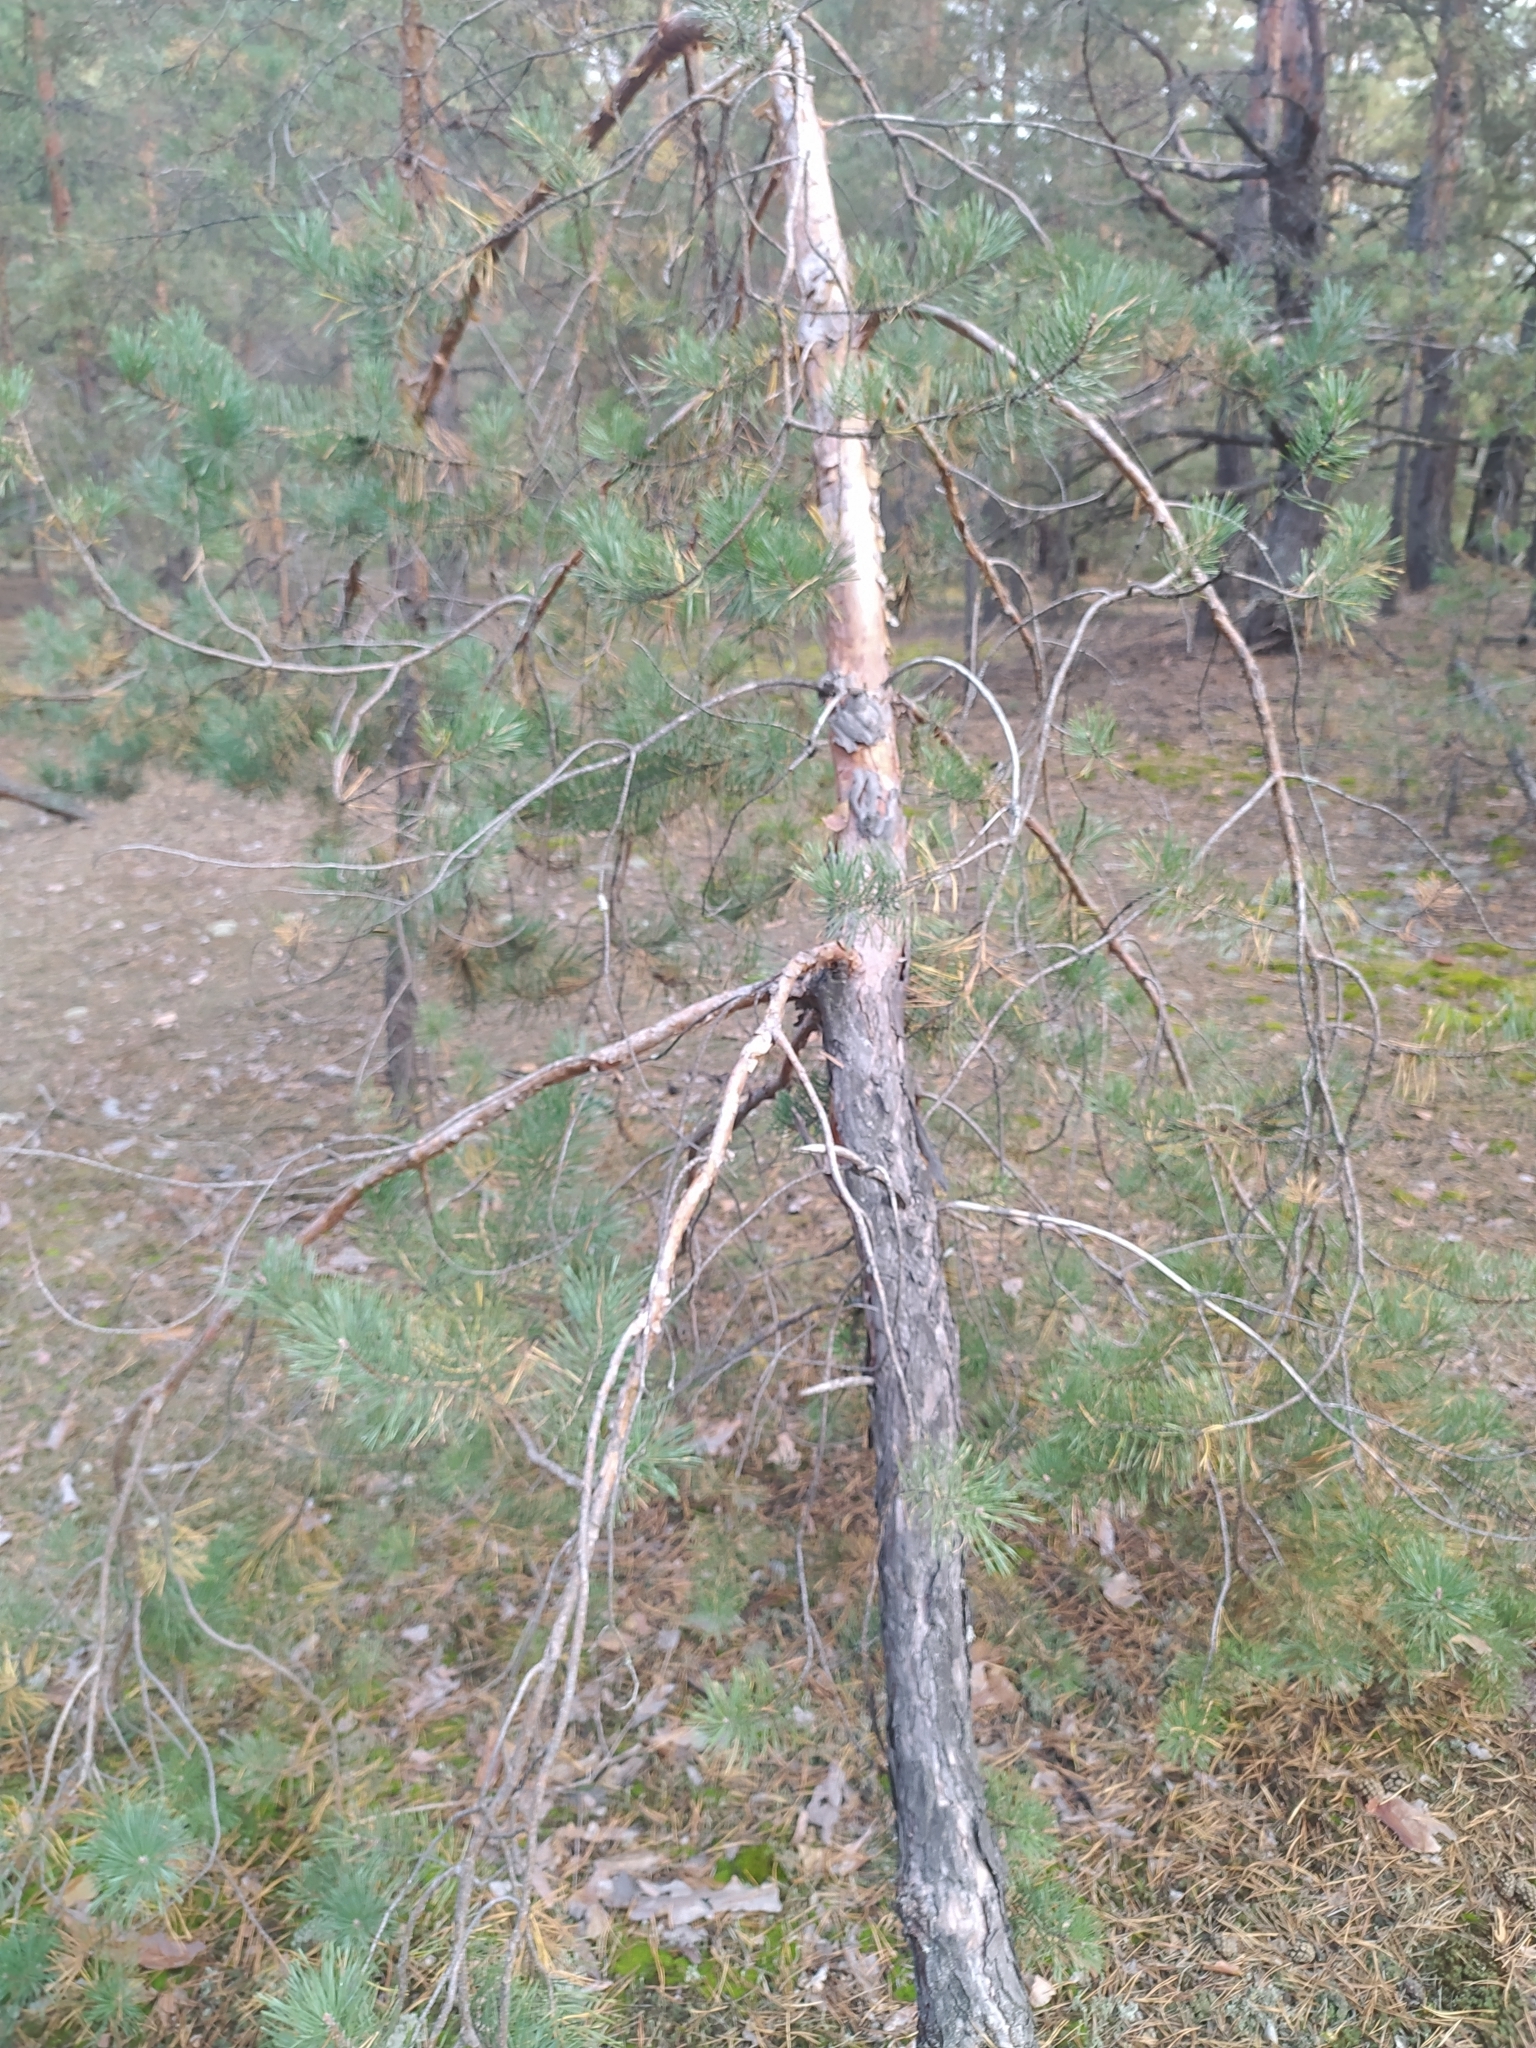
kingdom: Plantae
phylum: Tracheophyta
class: Pinopsida
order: Pinales
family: Pinaceae
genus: Pinus
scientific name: Pinus sylvestris
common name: Scots pine
